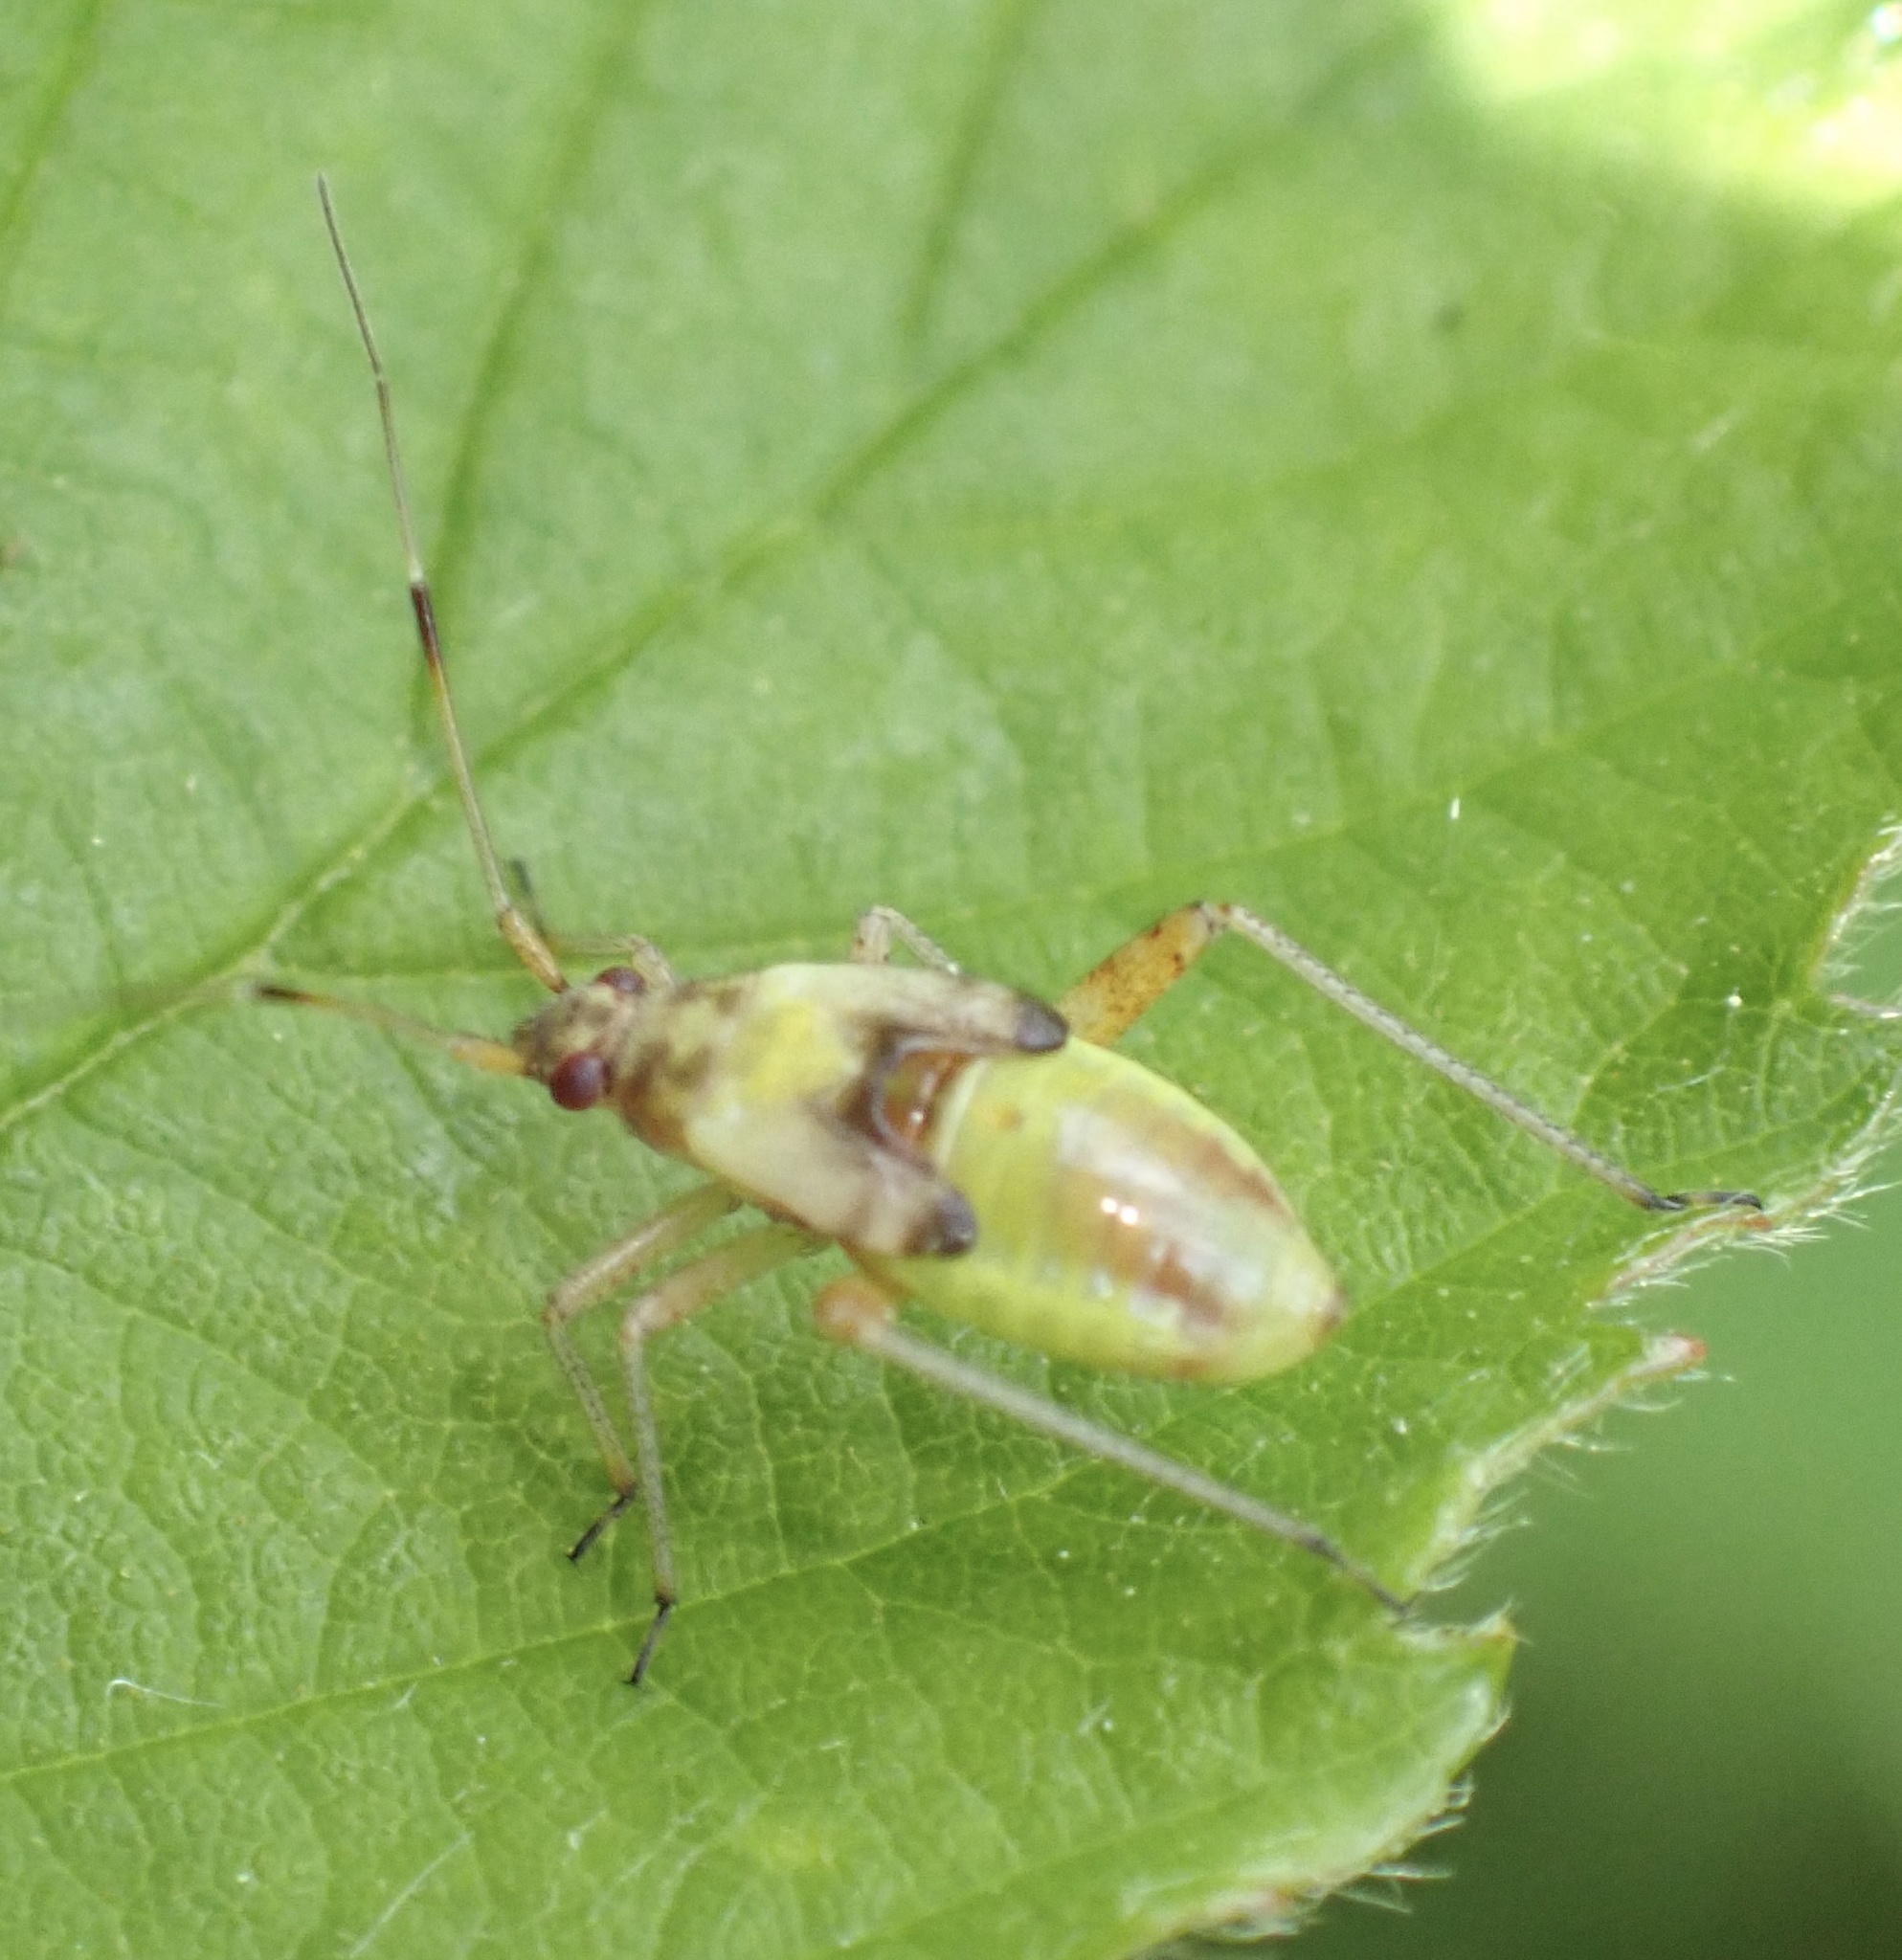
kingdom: Animalia
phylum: Arthropoda
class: Insecta
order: Hemiptera
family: Miridae
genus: Closterotomus
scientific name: Closterotomus fulvomaculatus
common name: Spotted plant bug
